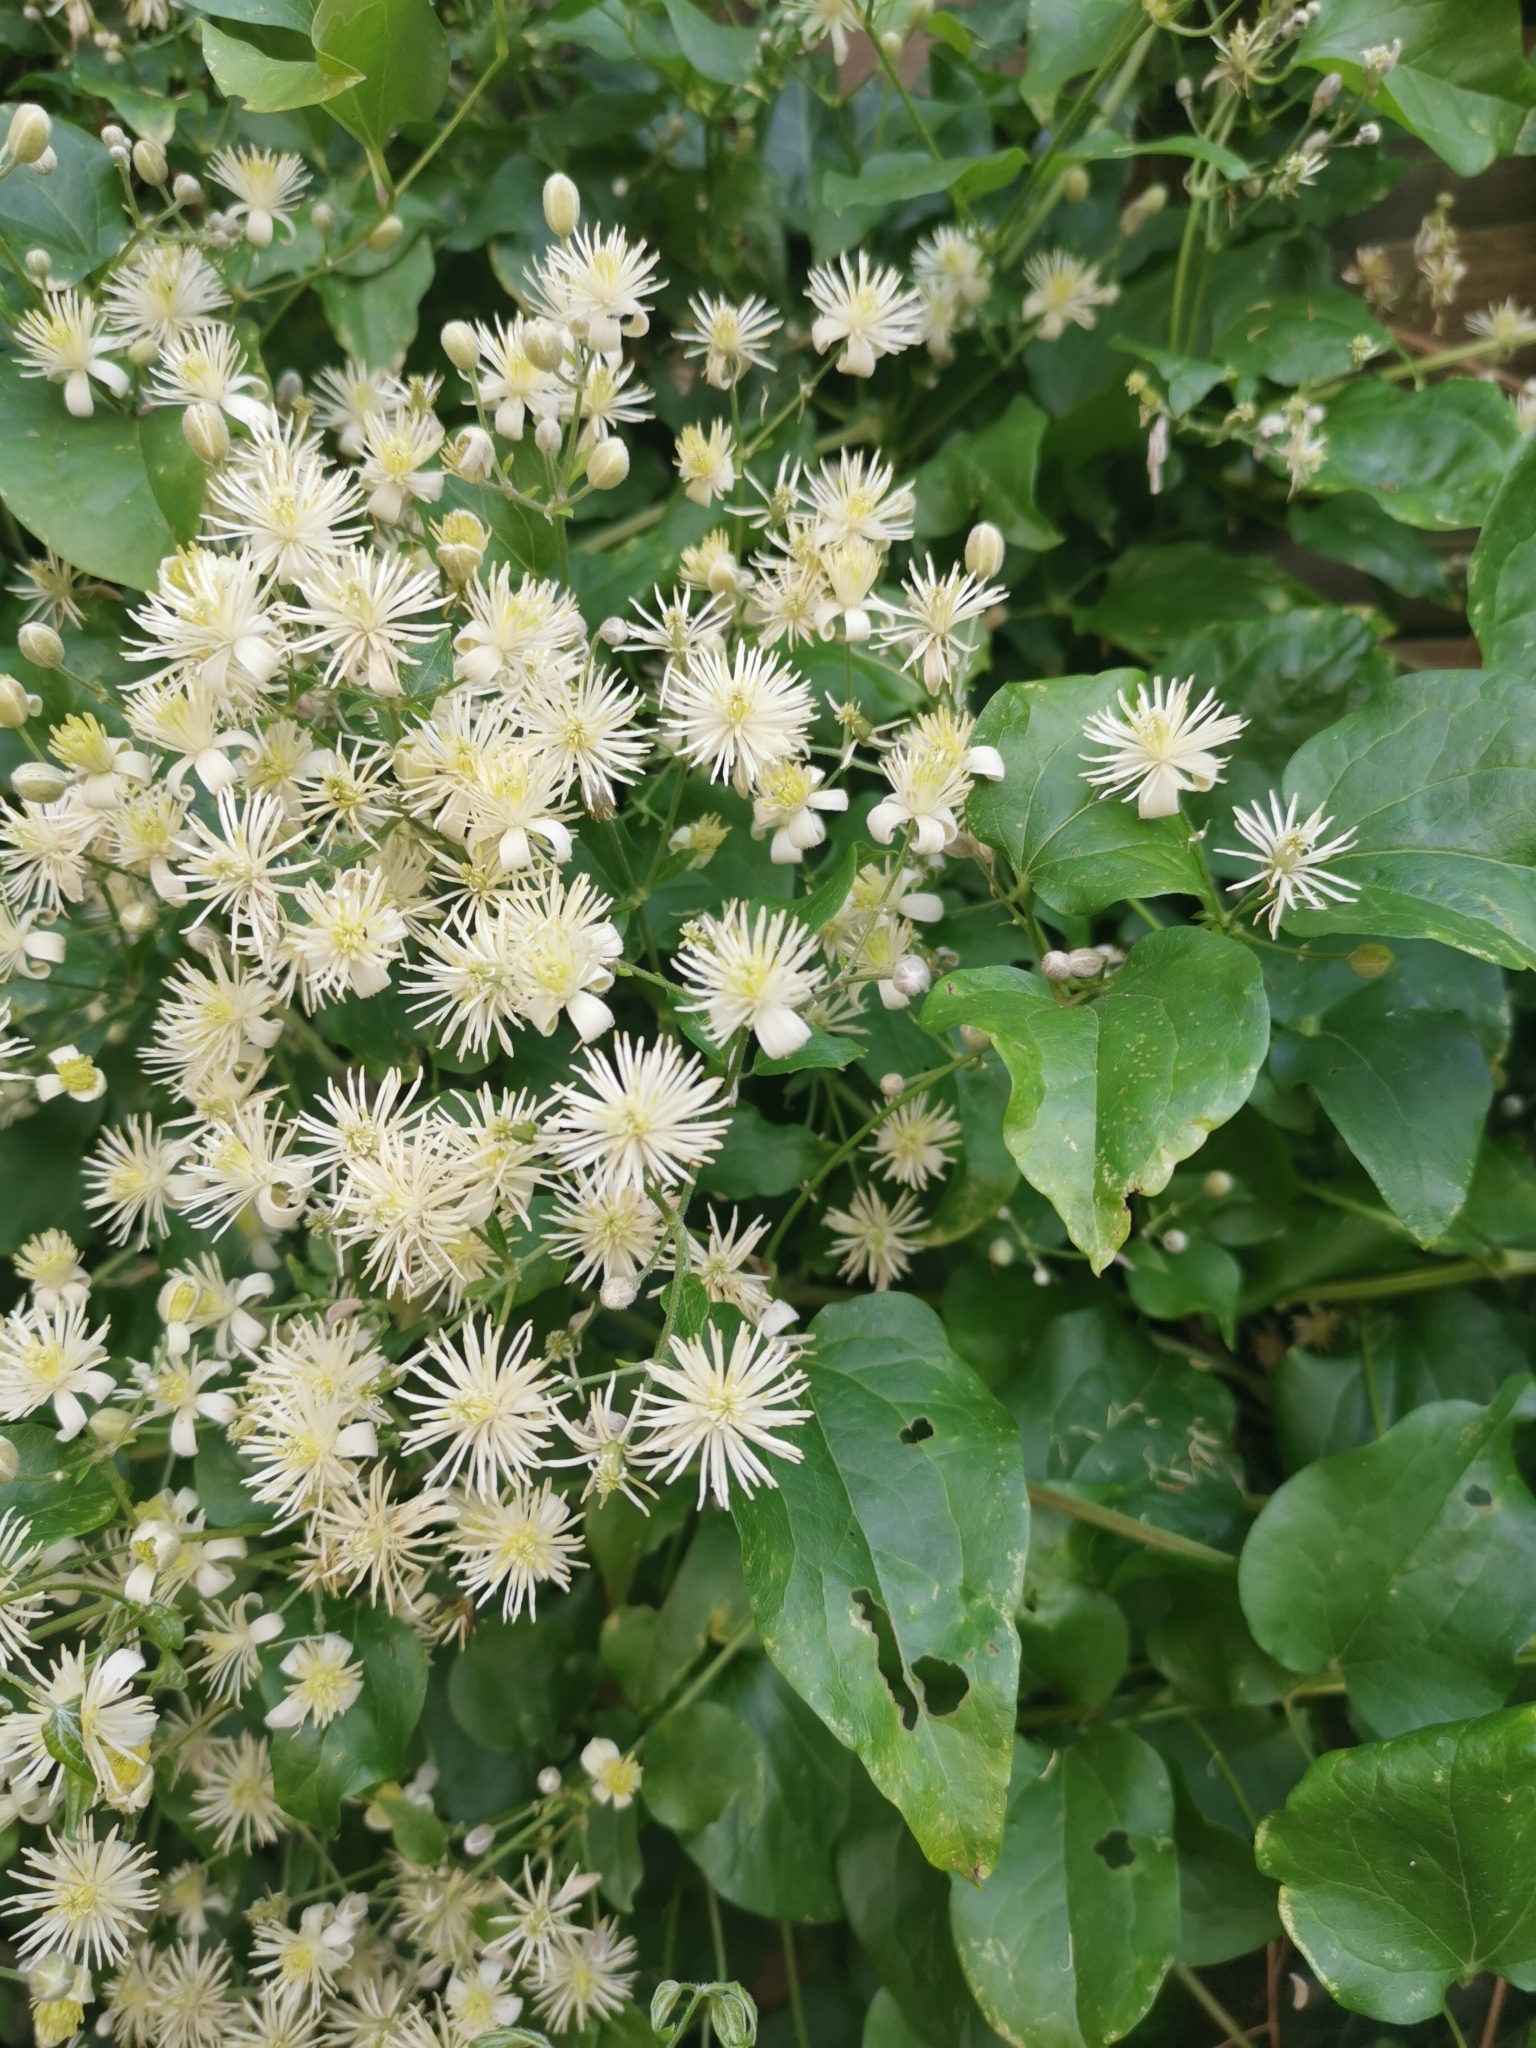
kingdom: Plantae
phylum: Tracheophyta
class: Magnoliopsida
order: Ranunculales
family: Ranunculaceae
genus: Clematis
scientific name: Clematis vitalba
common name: Evergreen clematis
